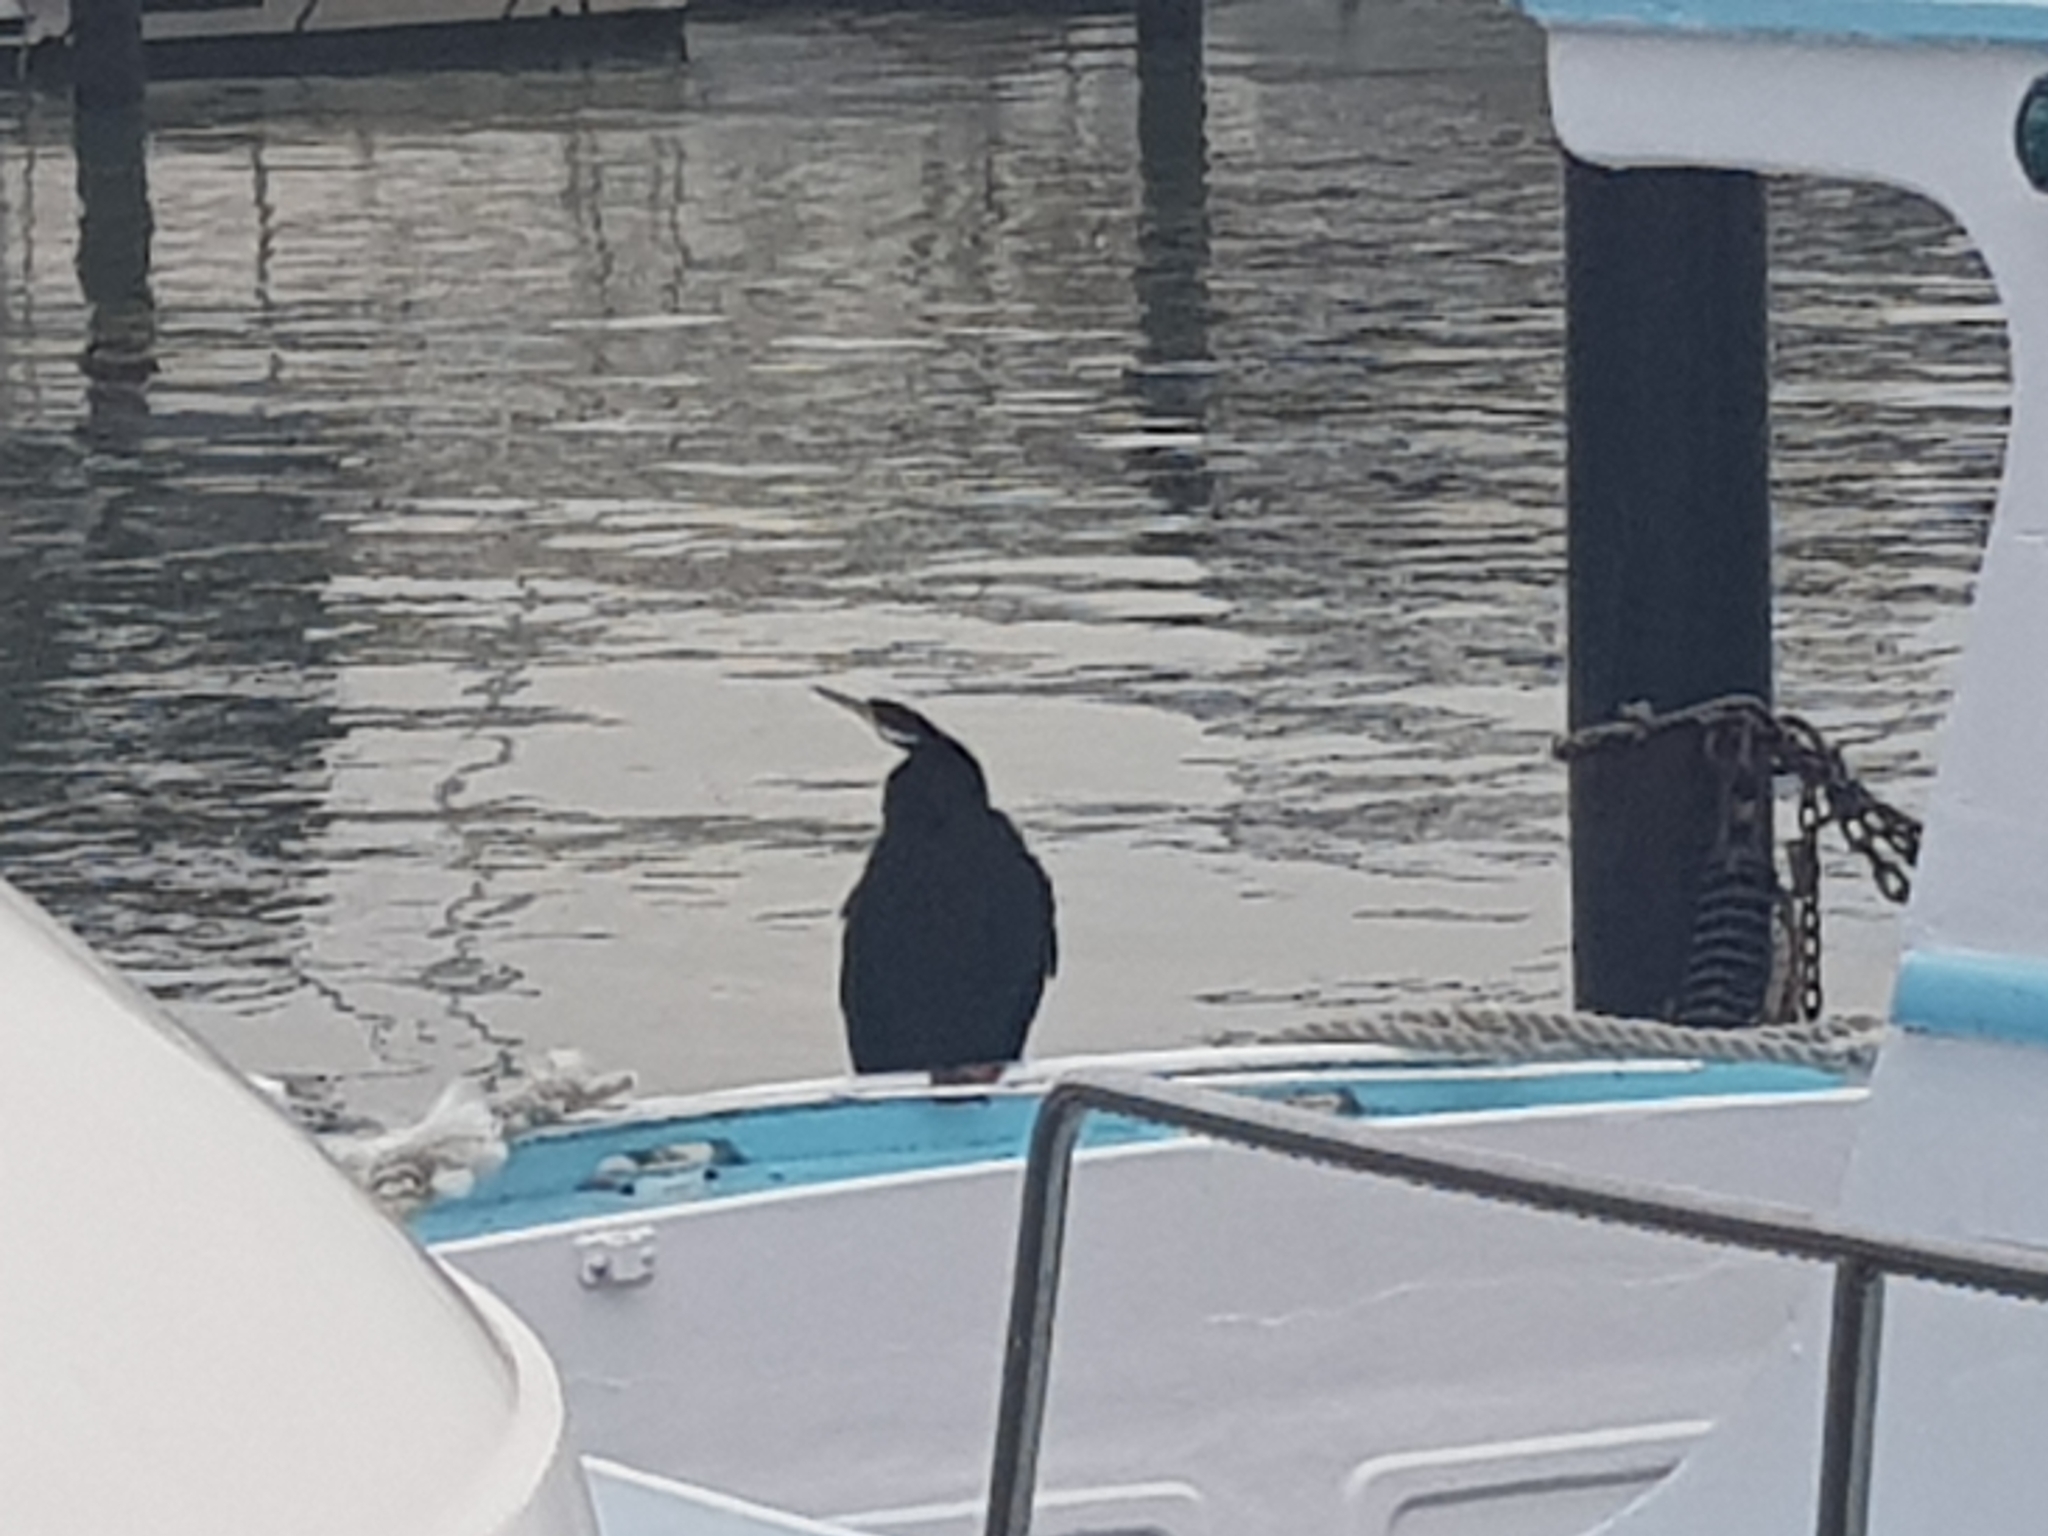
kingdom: Animalia
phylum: Chordata
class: Aves
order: Suliformes
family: Anhingidae
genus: Anhinga
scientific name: Anhinga novaehollandiae
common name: Australasian darter
